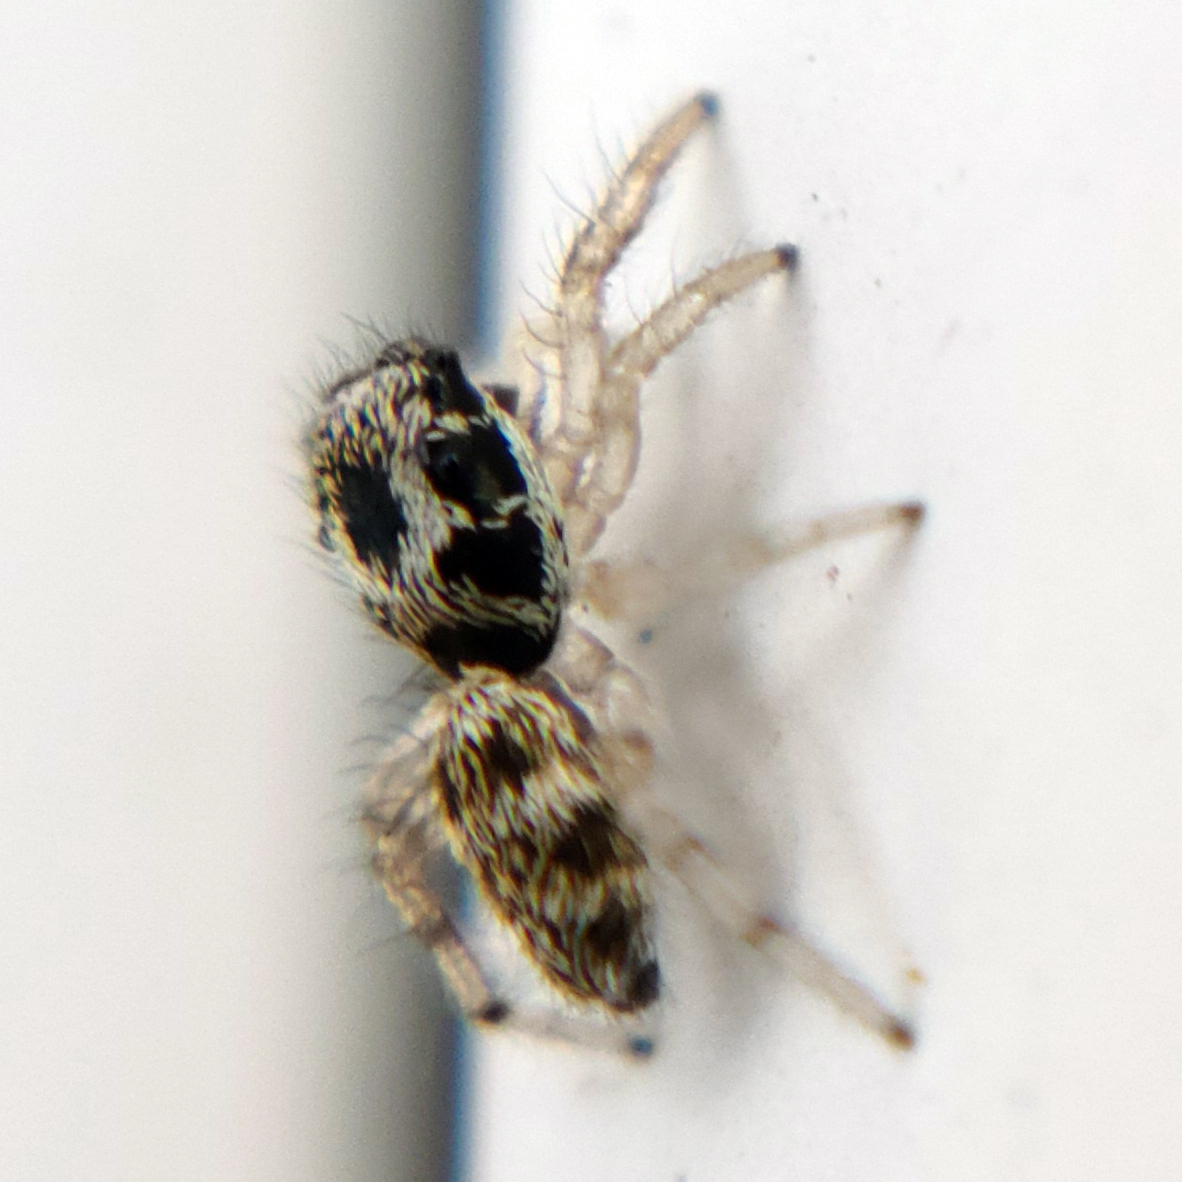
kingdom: Animalia
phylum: Arthropoda
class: Arachnida
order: Araneae
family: Salticidae
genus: Salticus
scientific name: Salticus scenicus
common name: Zebra jumper
